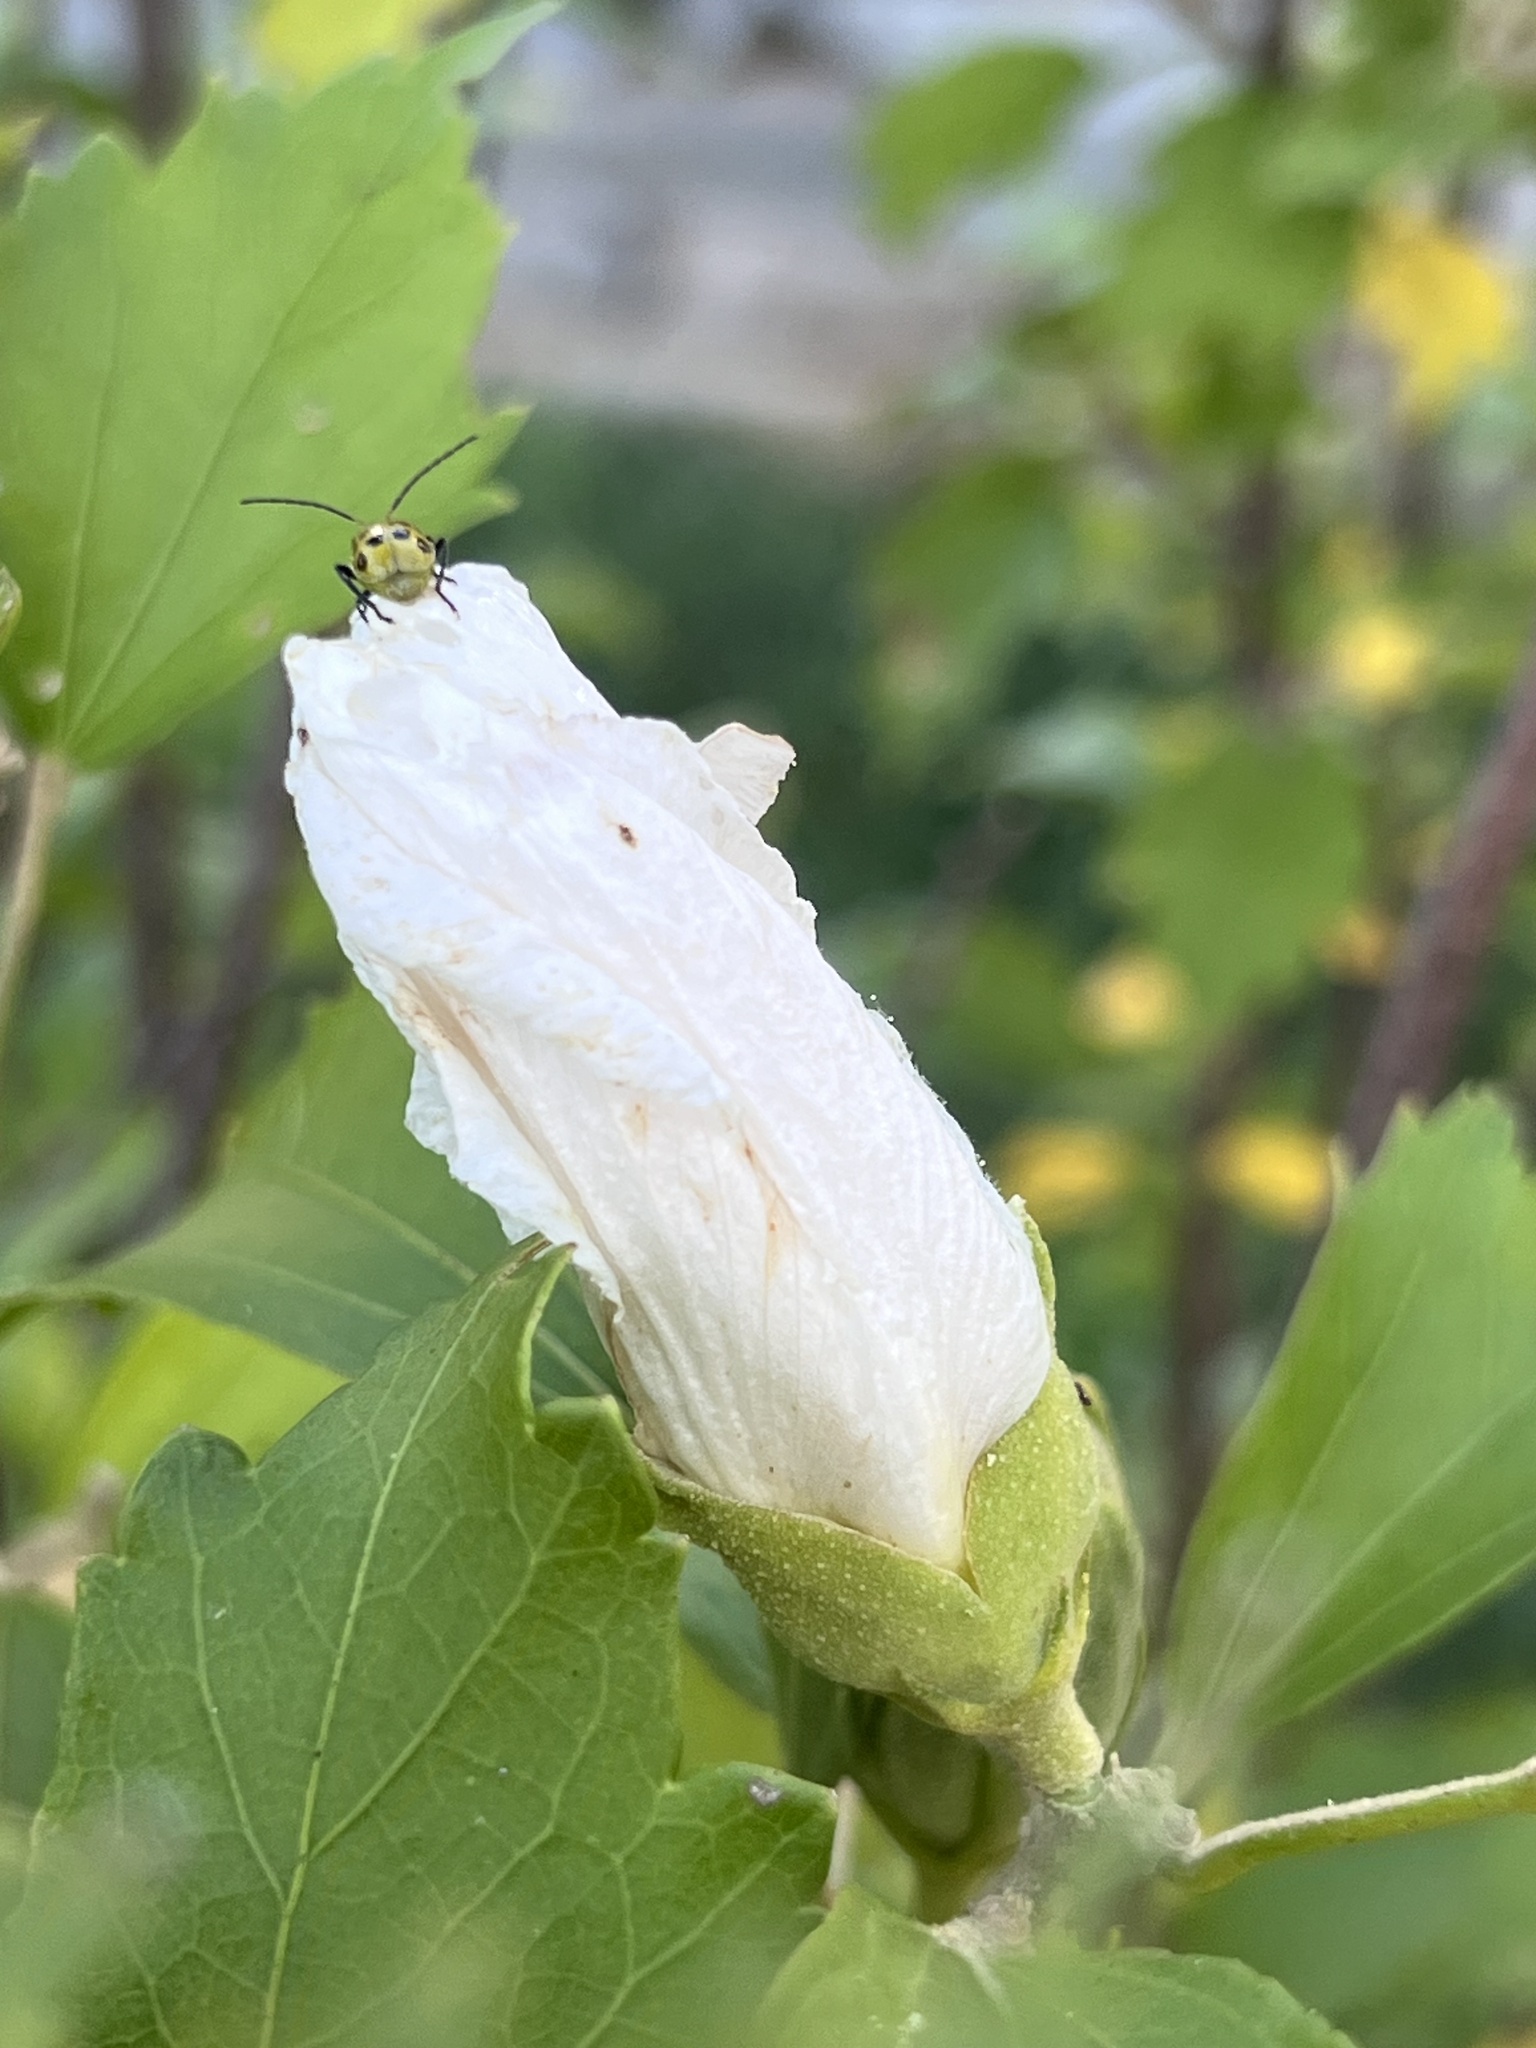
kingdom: Animalia
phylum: Arthropoda
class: Insecta
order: Coleoptera
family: Chrysomelidae
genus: Diabrotica
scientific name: Diabrotica undecimpunctata
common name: Spotted cucumber beetle
